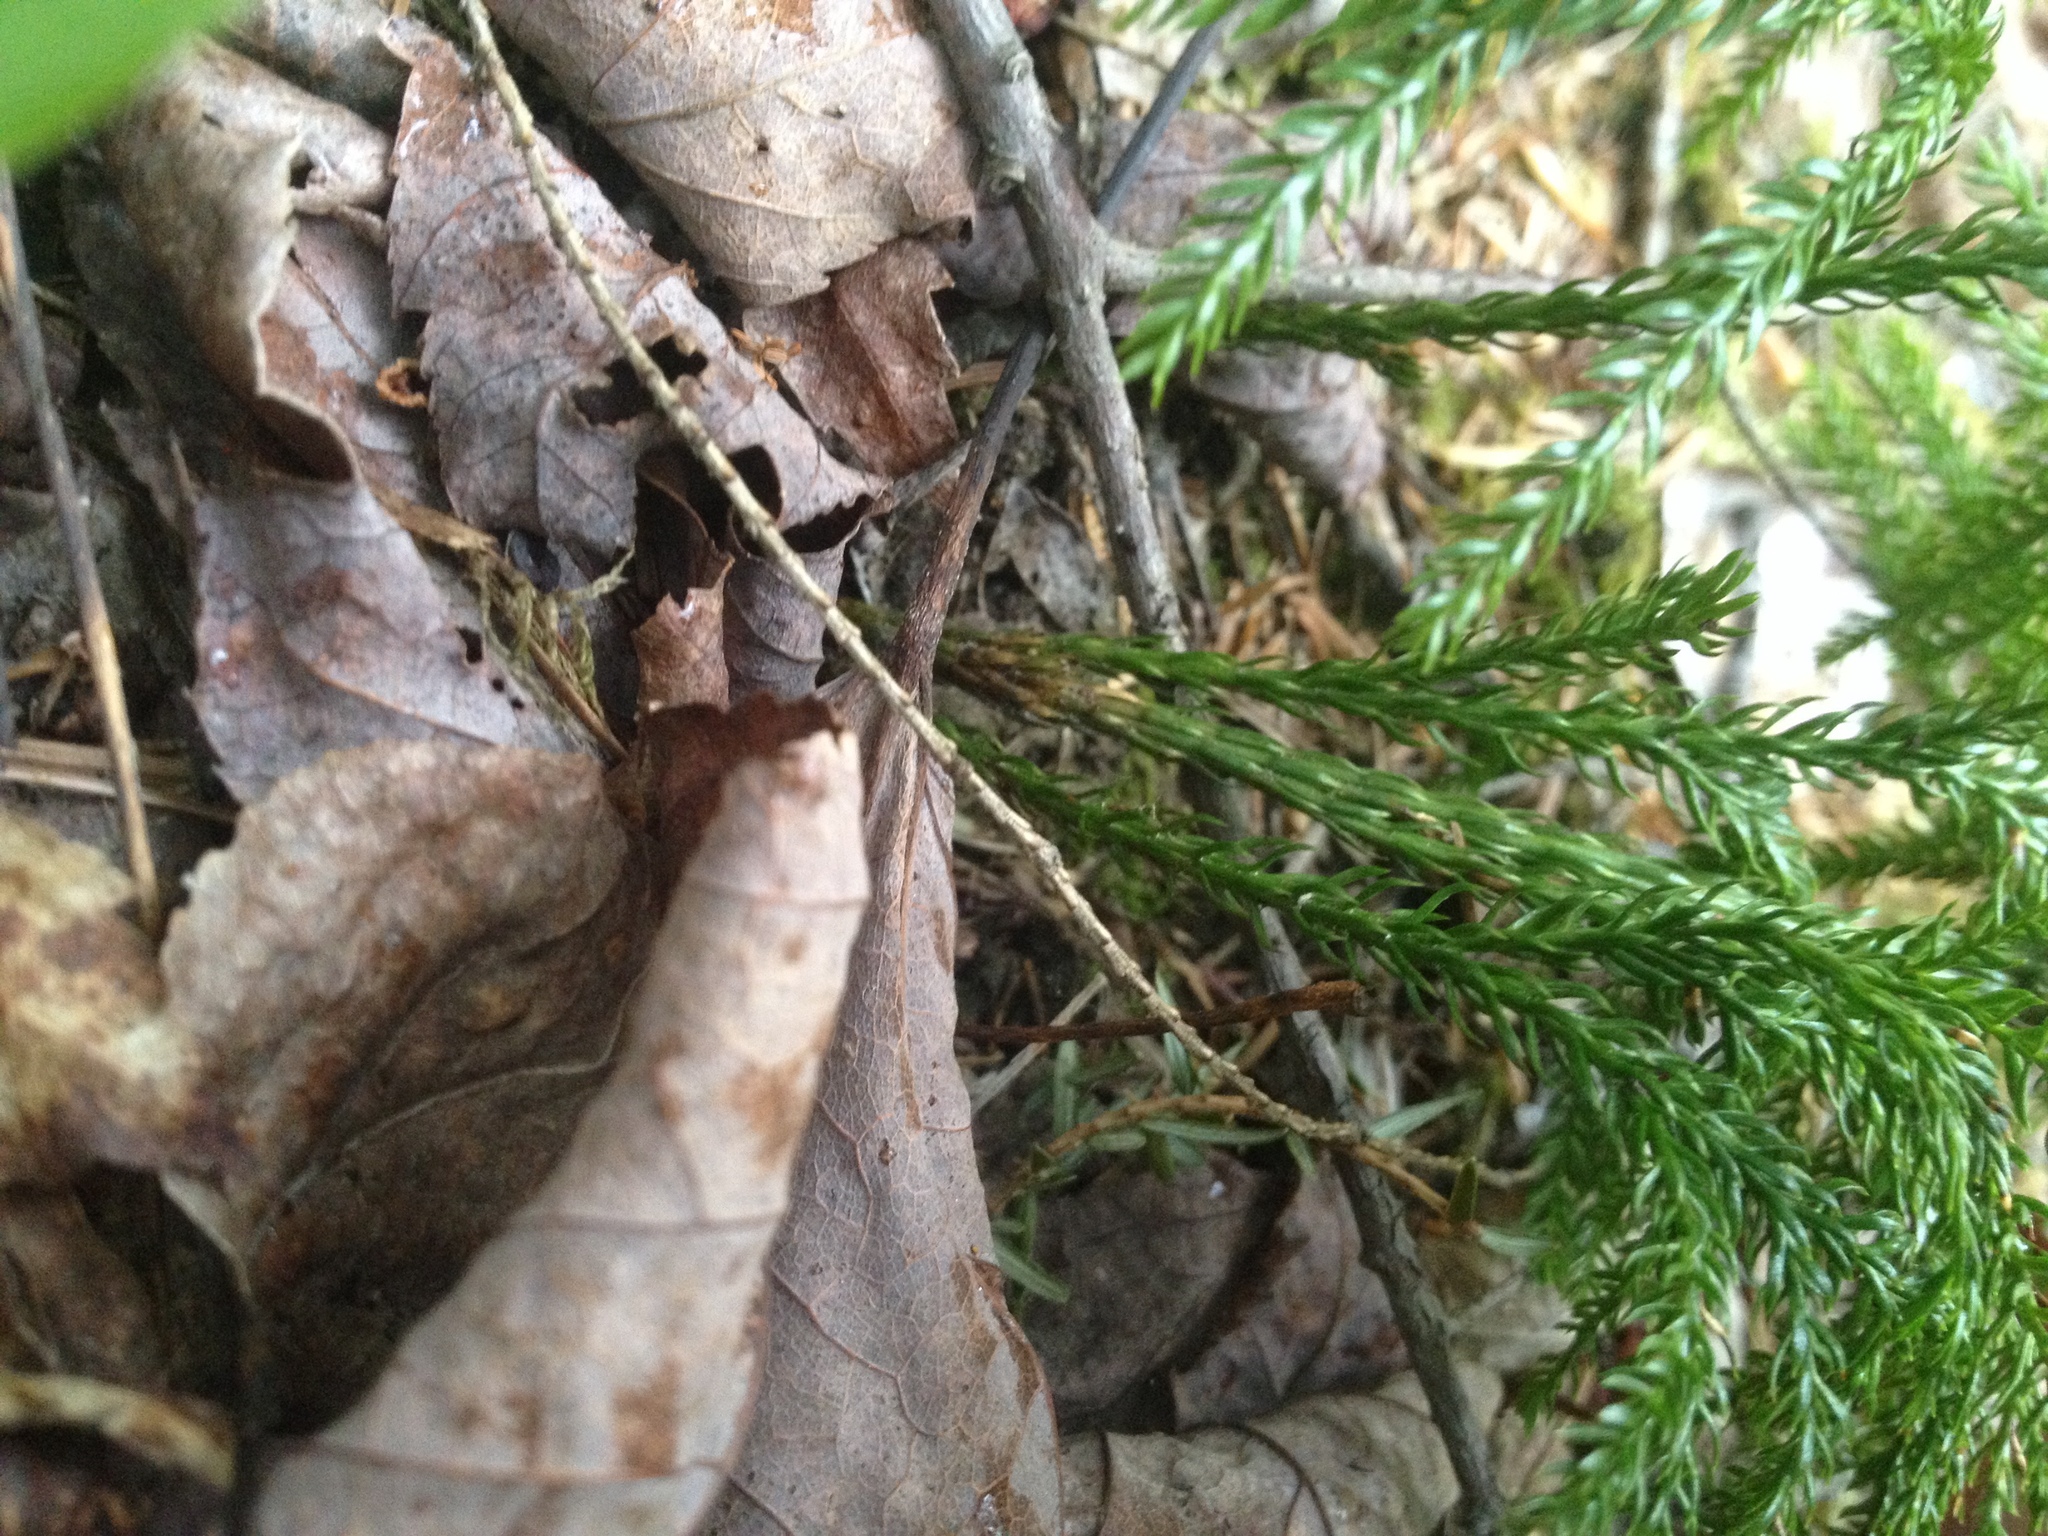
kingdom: Plantae
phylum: Tracheophyta
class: Lycopodiopsida
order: Lycopodiales
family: Lycopodiaceae
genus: Dendrolycopodium
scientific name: Dendrolycopodium dendroideum
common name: Northern tree-clubmoss
